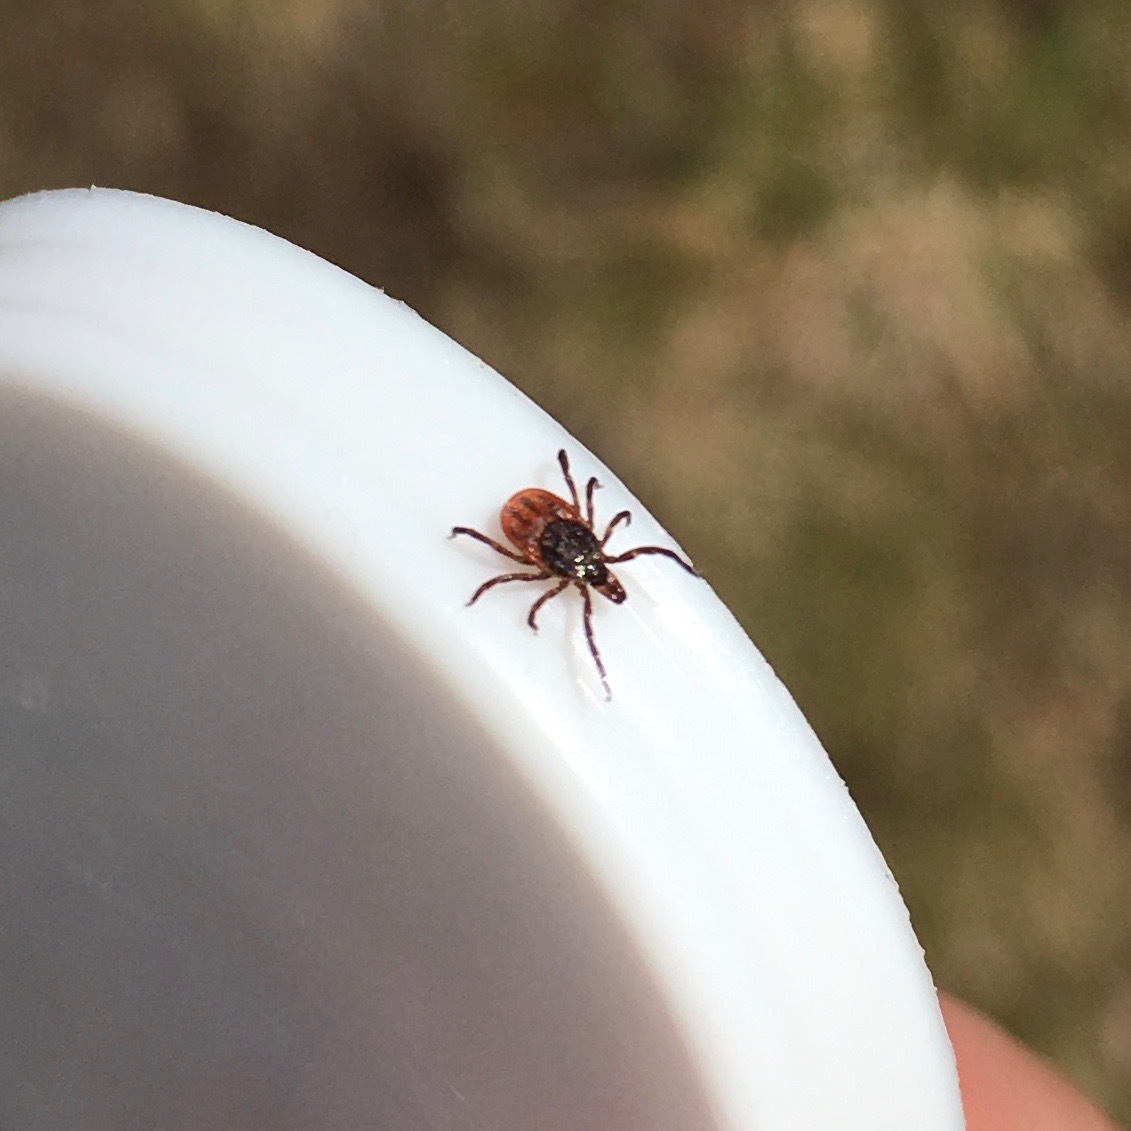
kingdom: Animalia
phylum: Arthropoda
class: Arachnida
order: Ixodida
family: Ixodidae
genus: Ixodes
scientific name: Ixodes scapularis
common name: Black legged tick
